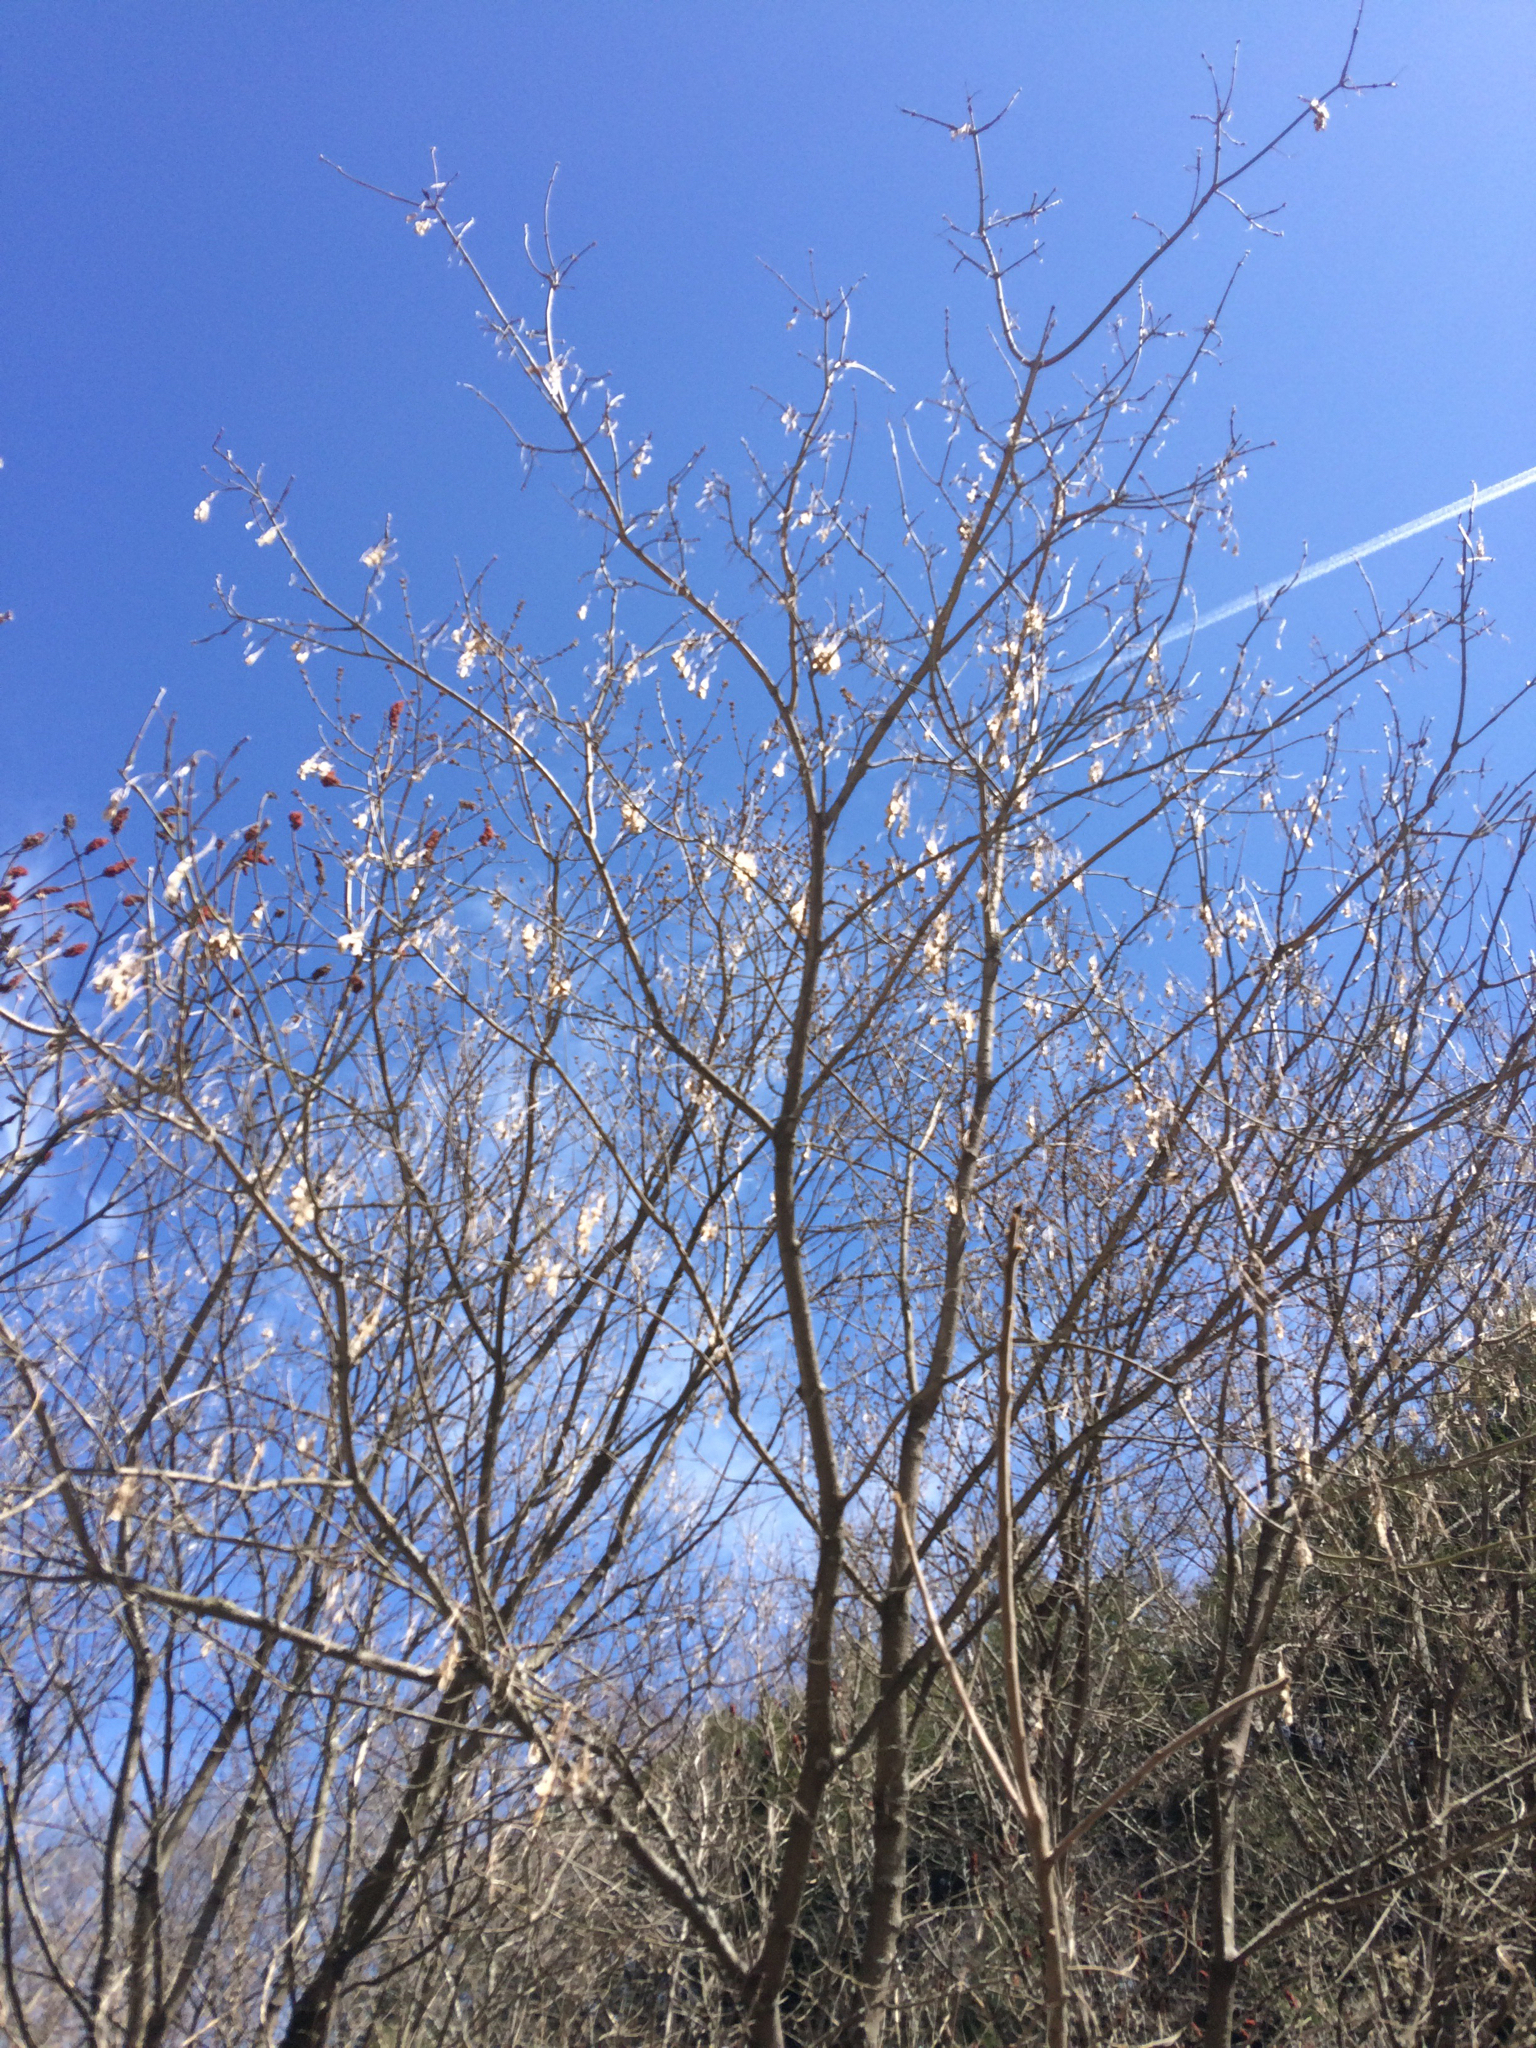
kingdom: Plantae
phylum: Tracheophyta
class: Magnoliopsida
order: Sapindales
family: Sapindaceae
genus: Acer
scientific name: Acer negundo
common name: Ashleaf maple
